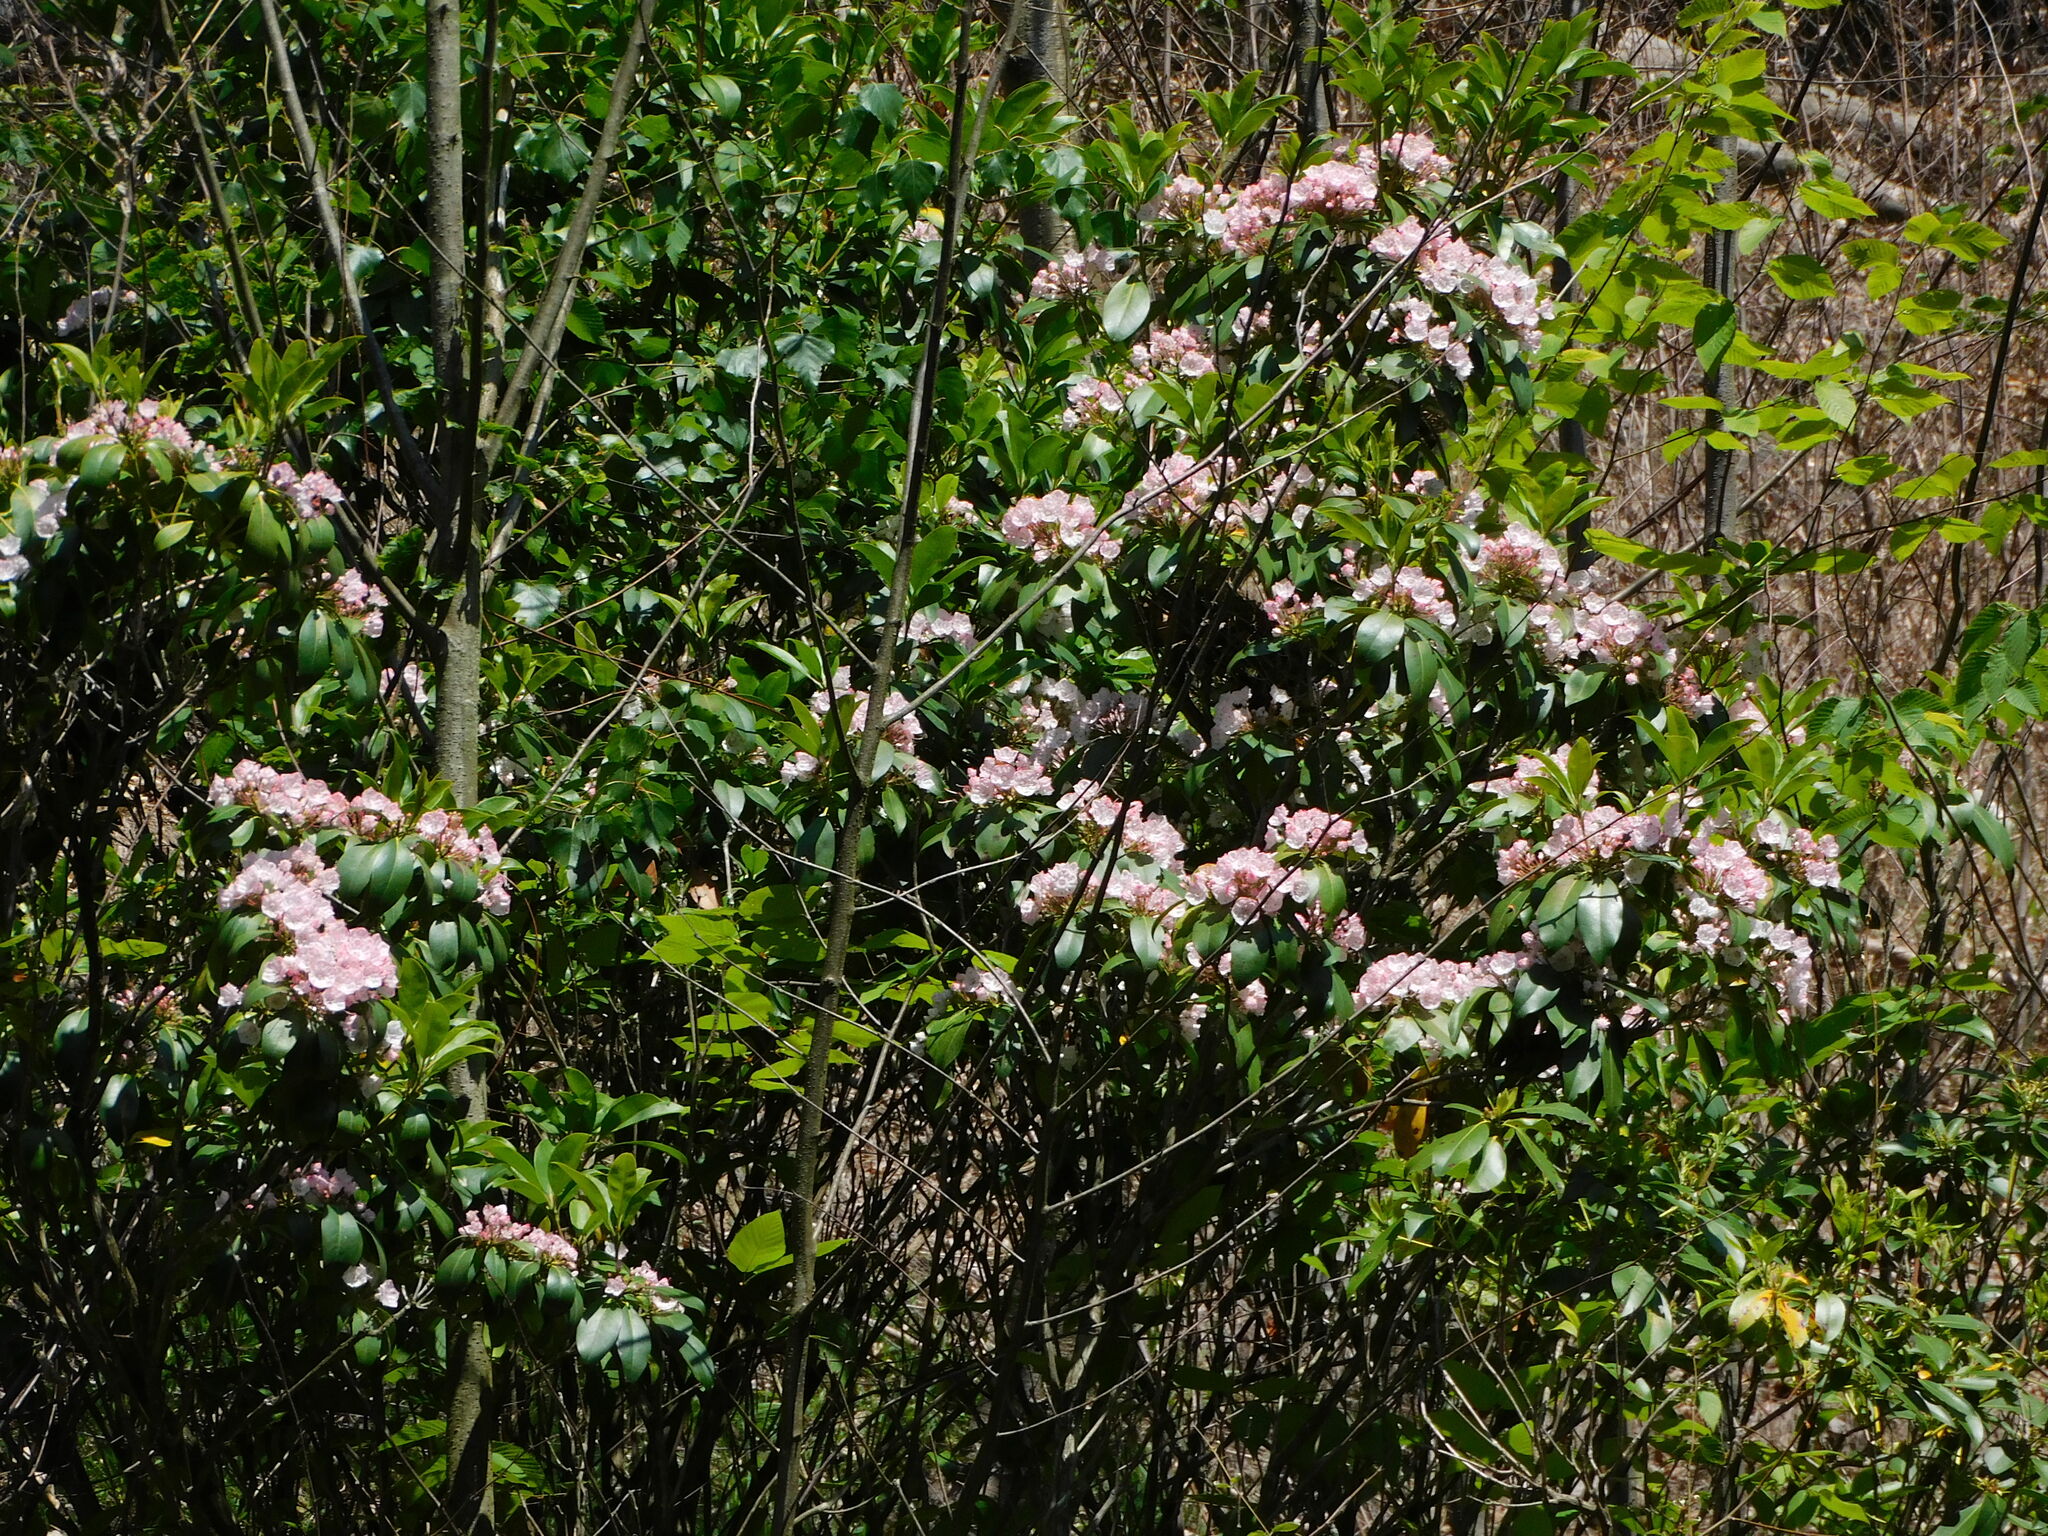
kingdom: Plantae
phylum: Tracheophyta
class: Magnoliopsida
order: Ericales
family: Ericaceae
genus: Kalmia
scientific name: Kalmia latifolia
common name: Mountain-laurel
